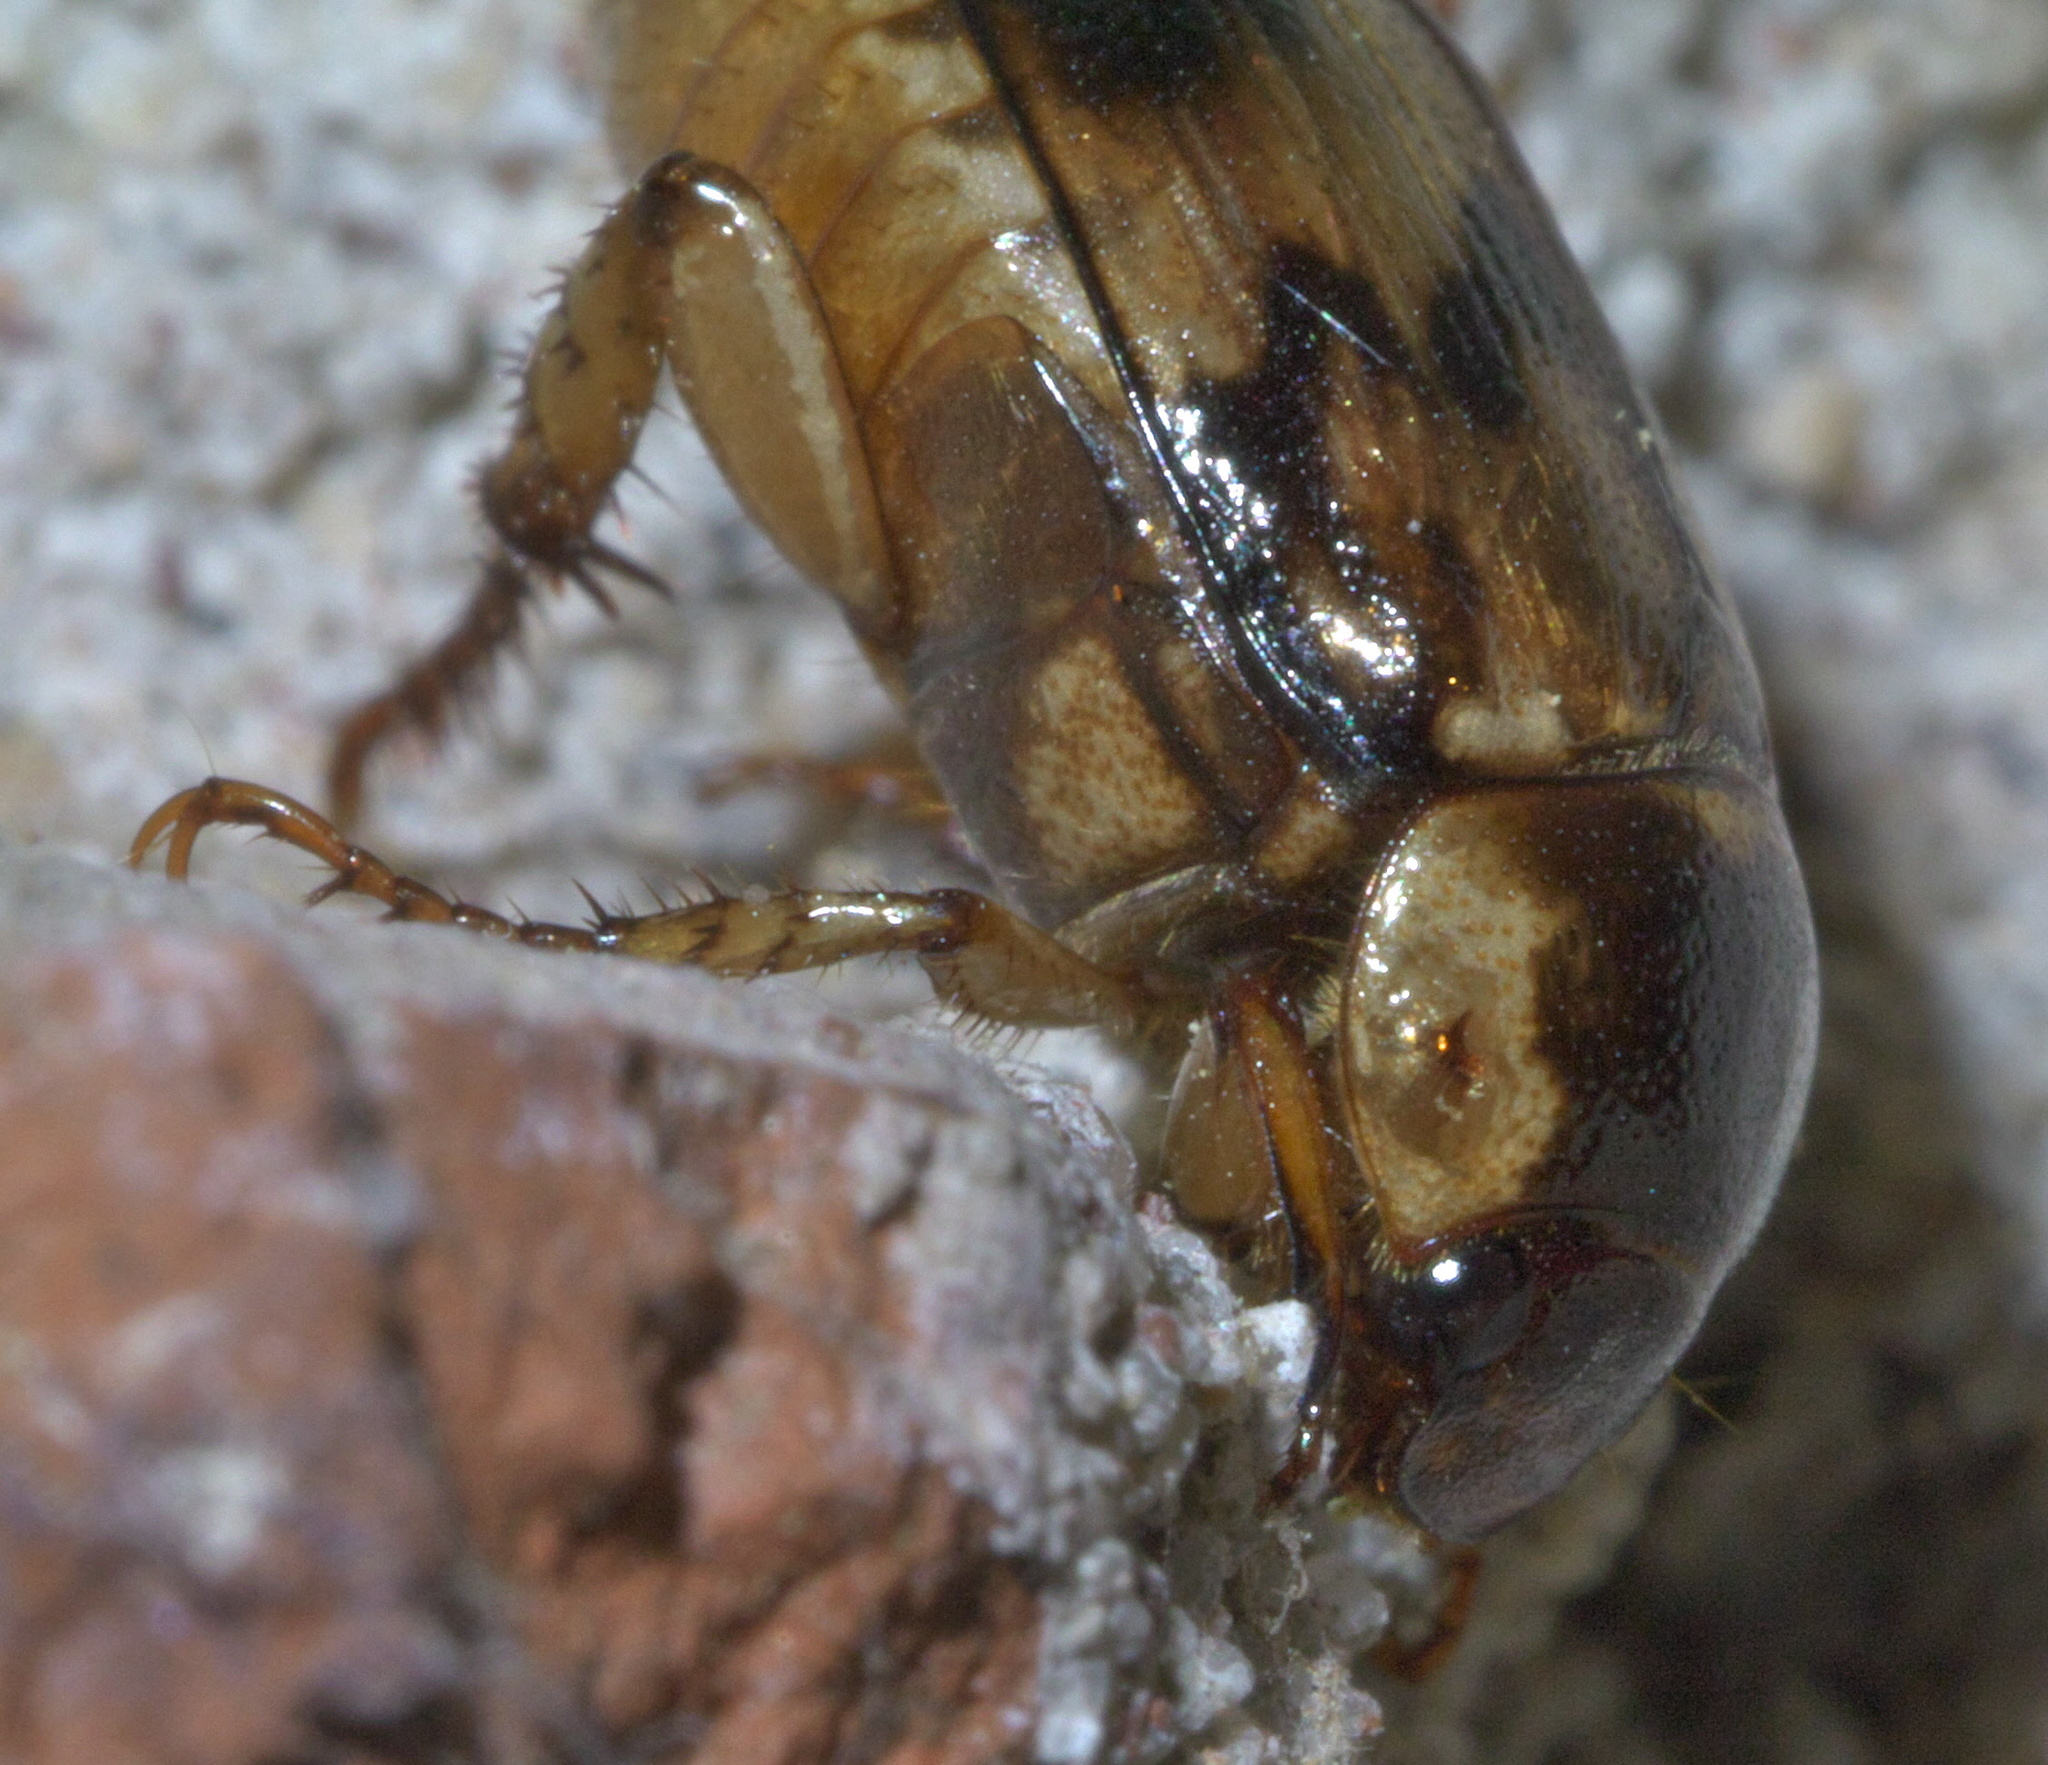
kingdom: Animalia
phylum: Arthropoda
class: Insecta
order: Coleoptera
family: Scarabaeidae
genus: Paranomala
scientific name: Paranomala undulata
